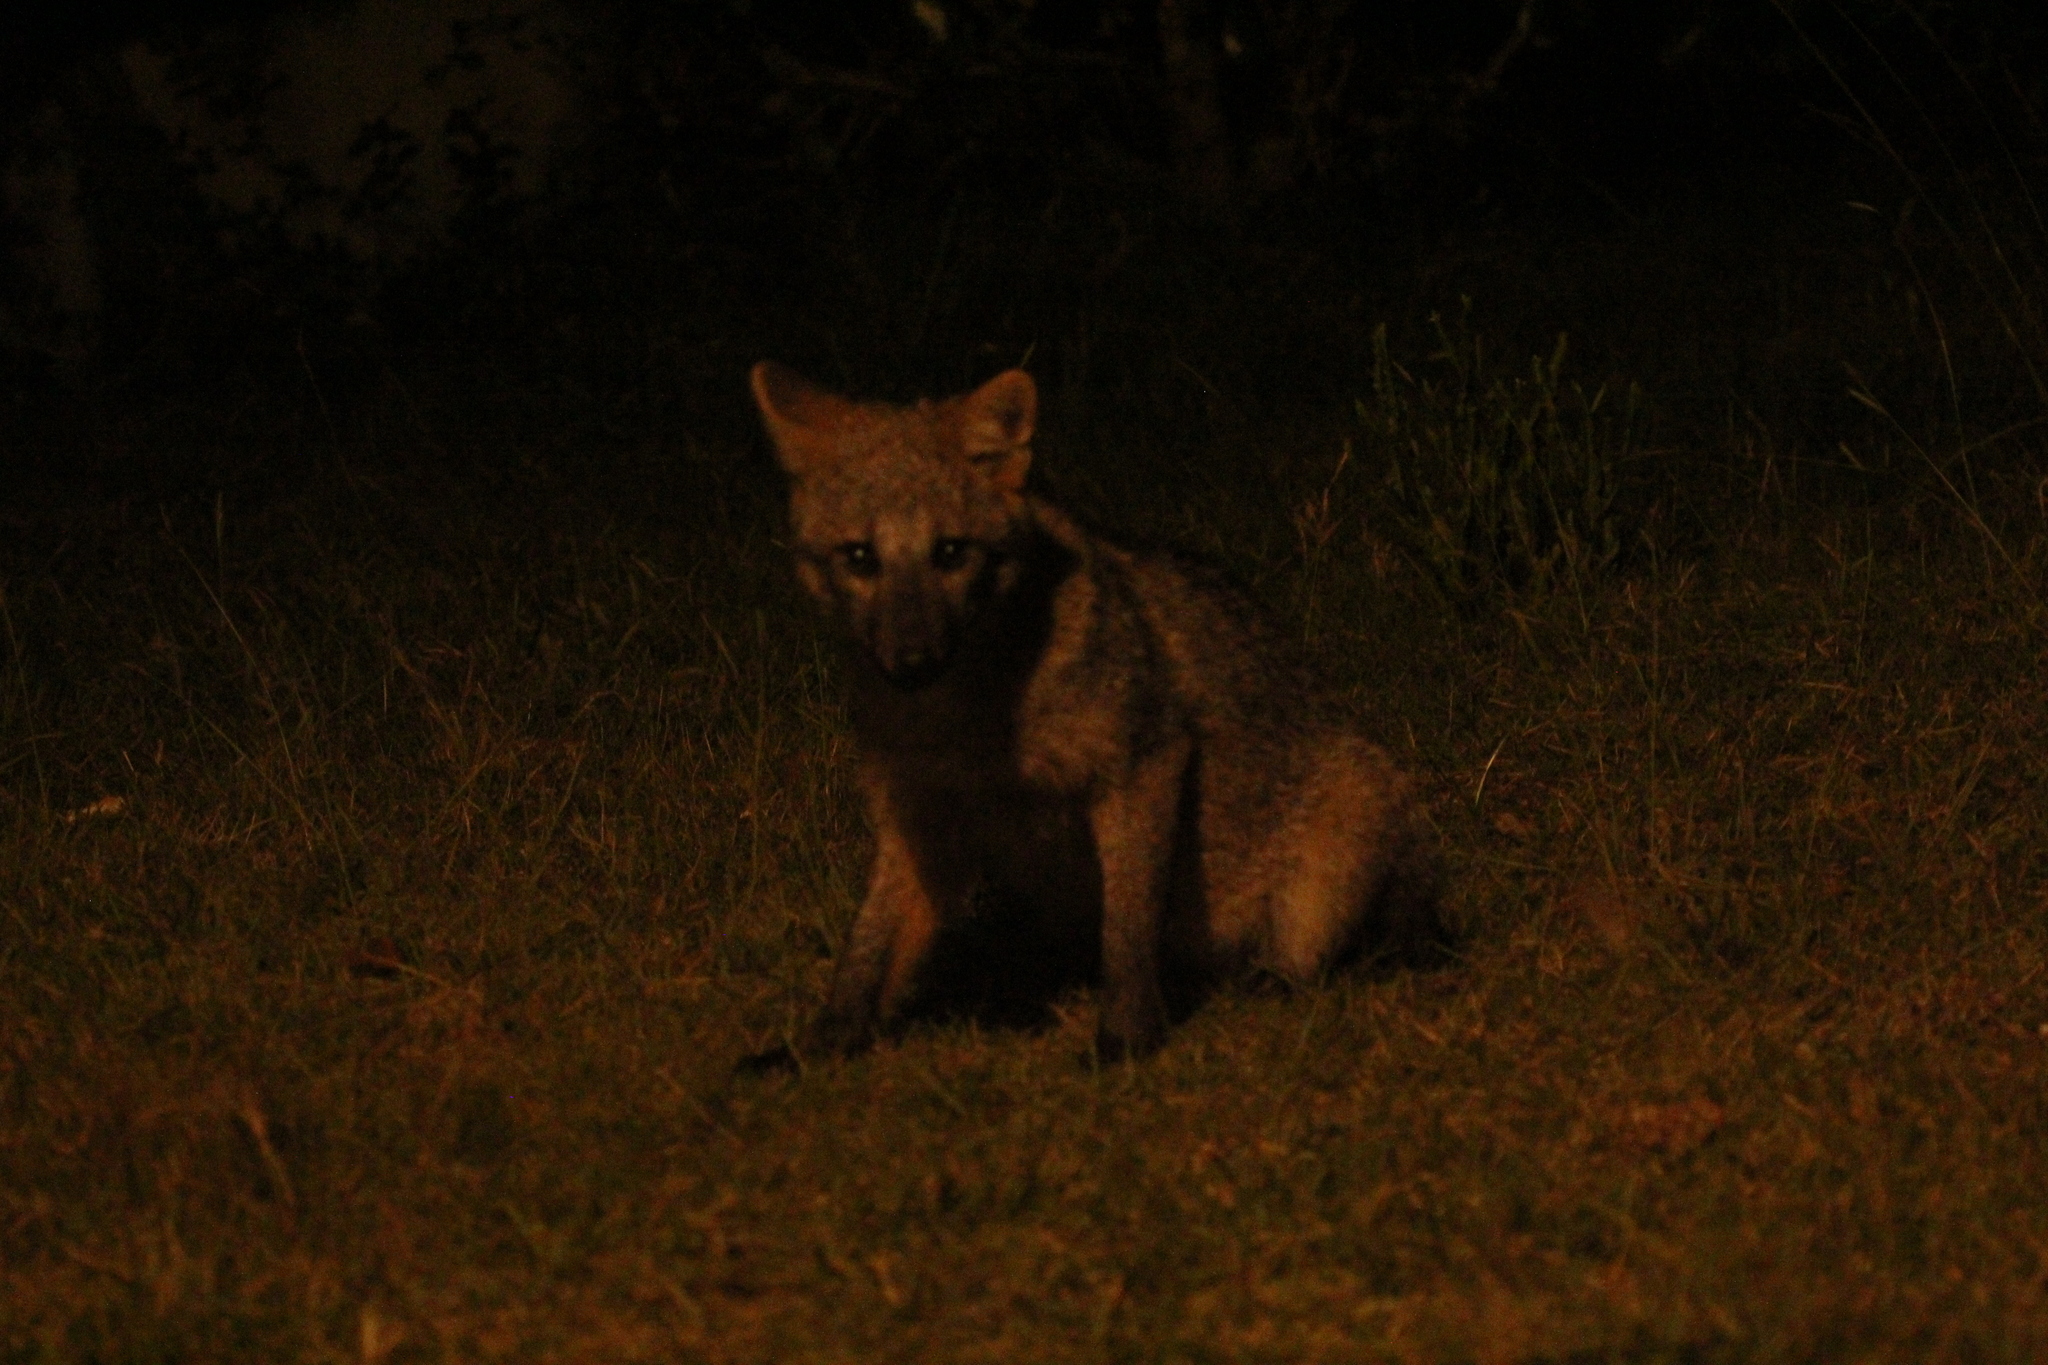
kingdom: Animalia
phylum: Chordata
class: Mammalia
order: Carnivora
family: Canidae
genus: Cerdocyon
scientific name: Cerdocyon thous
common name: Crab-eating fox
